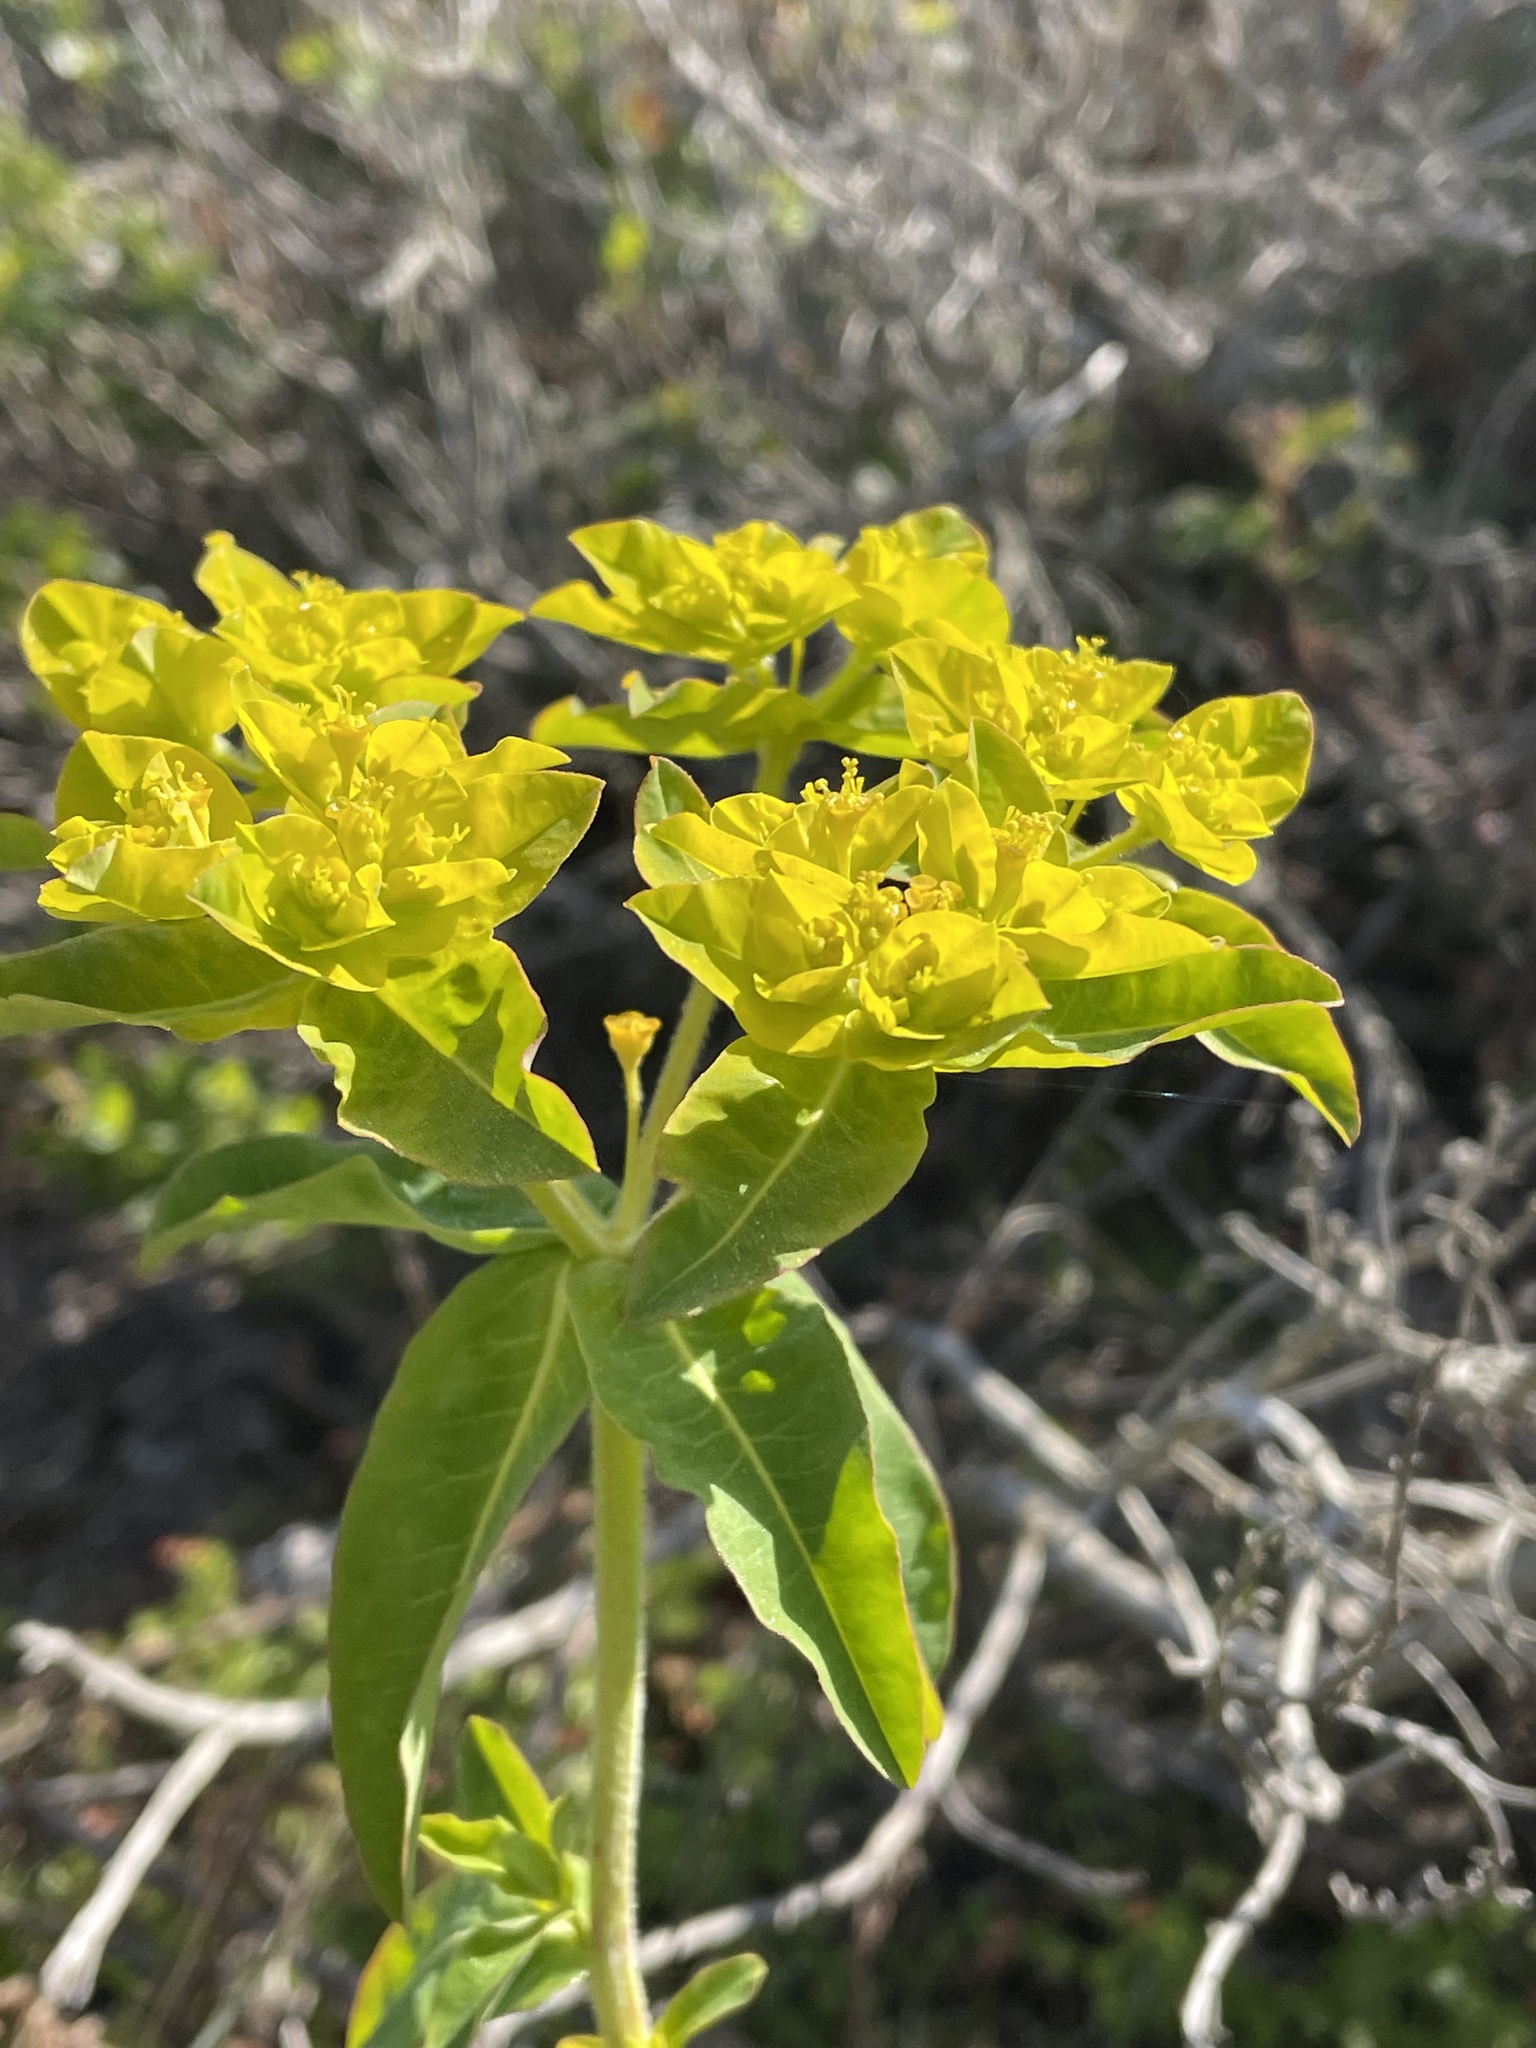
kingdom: Plantae
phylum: Tracheophyta
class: Magnoliopsida
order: Malpighiales
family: Euphorbiaceae
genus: Euphorbia
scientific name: Euphorbia oblongata
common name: Balkan spurge
